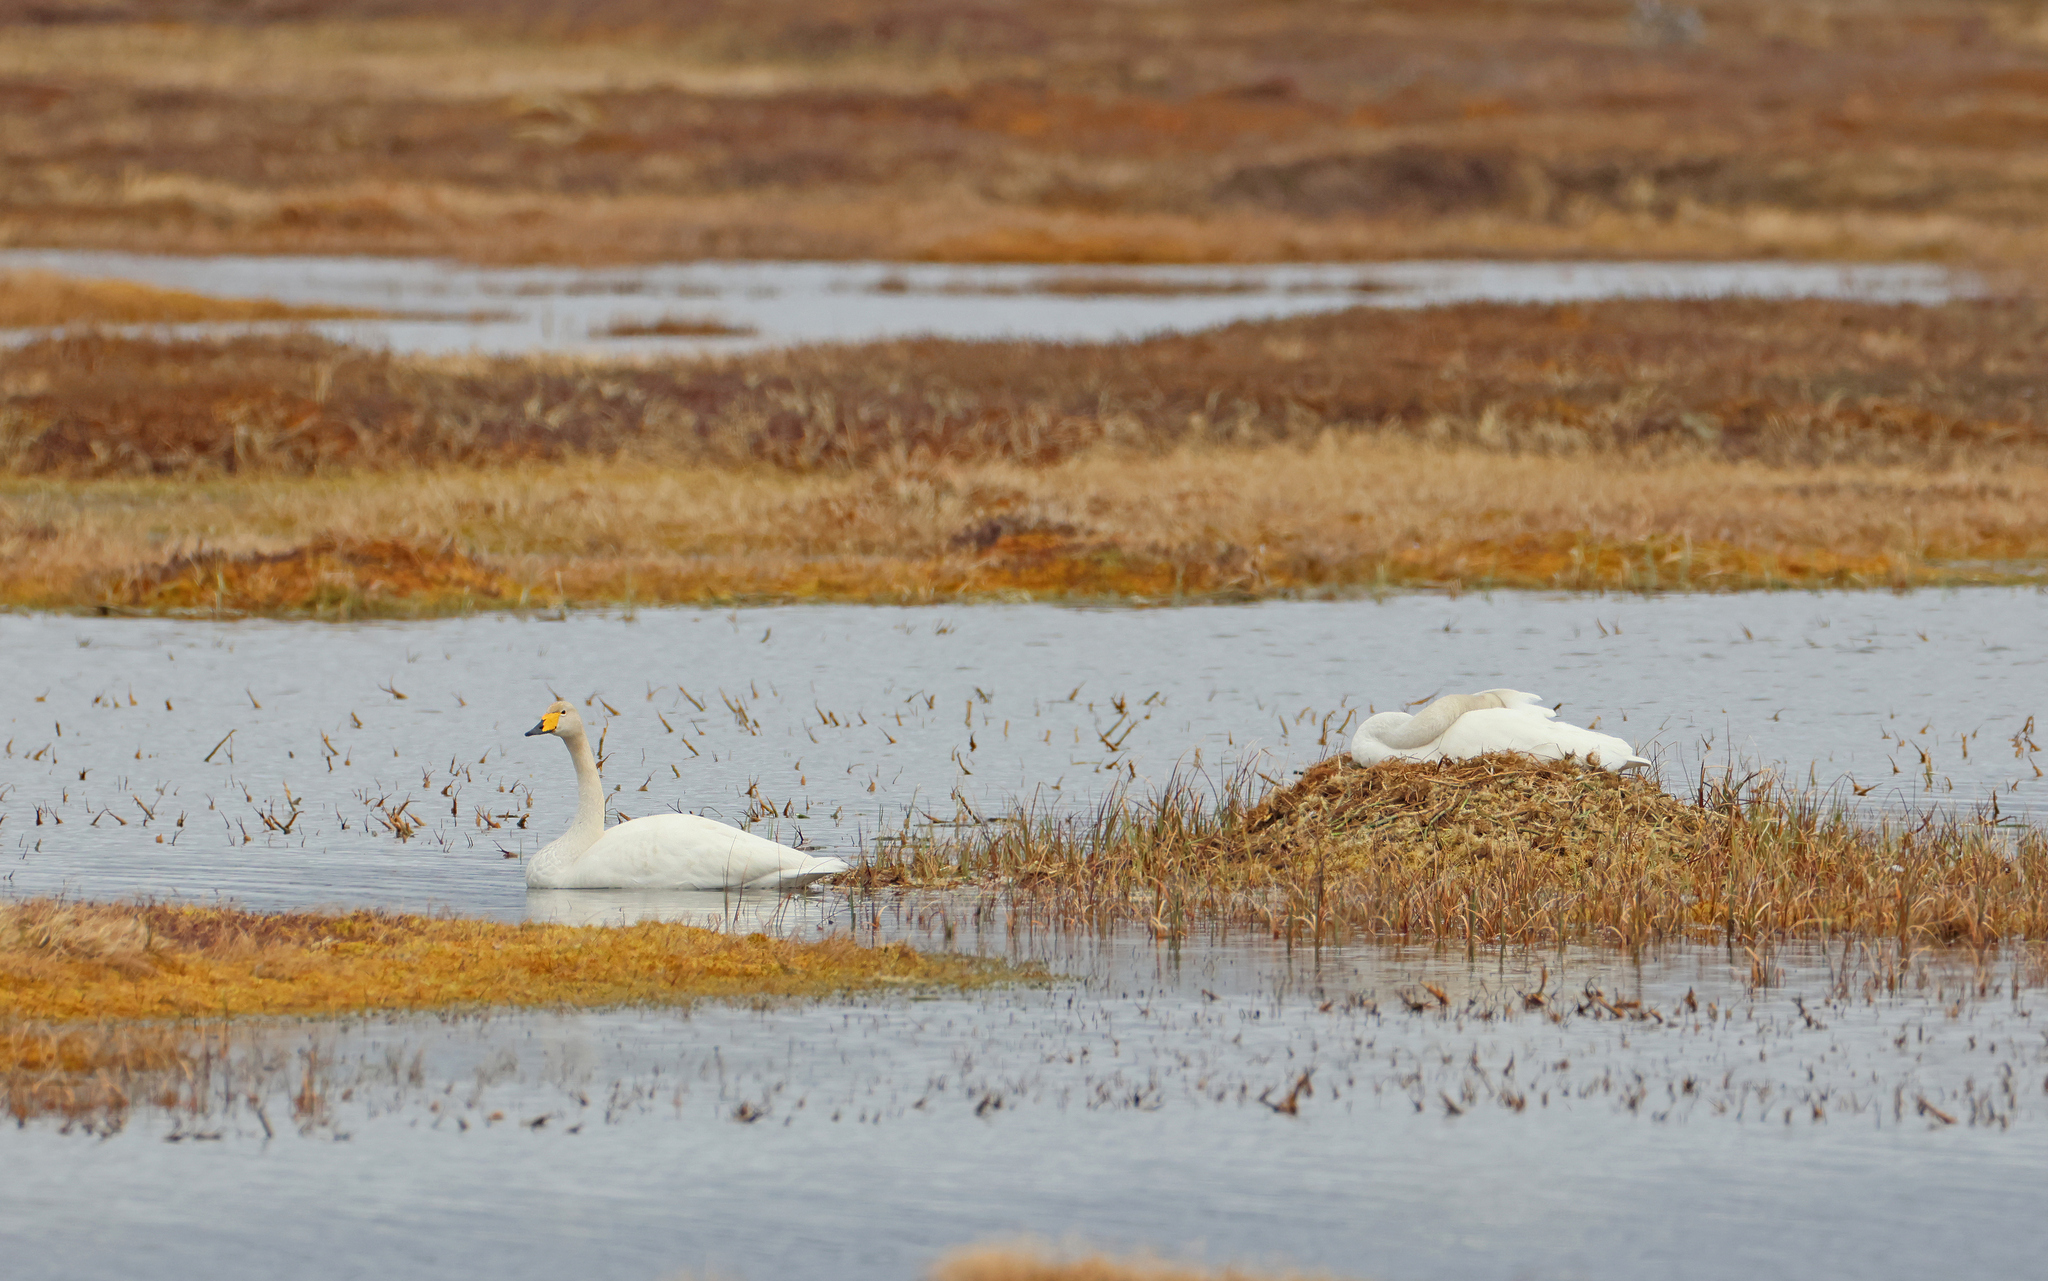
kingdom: Animalia
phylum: Chordata
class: Aves
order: Anseriformes
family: Anatidae
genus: Cygnus
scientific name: Cygnus cygnus
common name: Whooper swan
